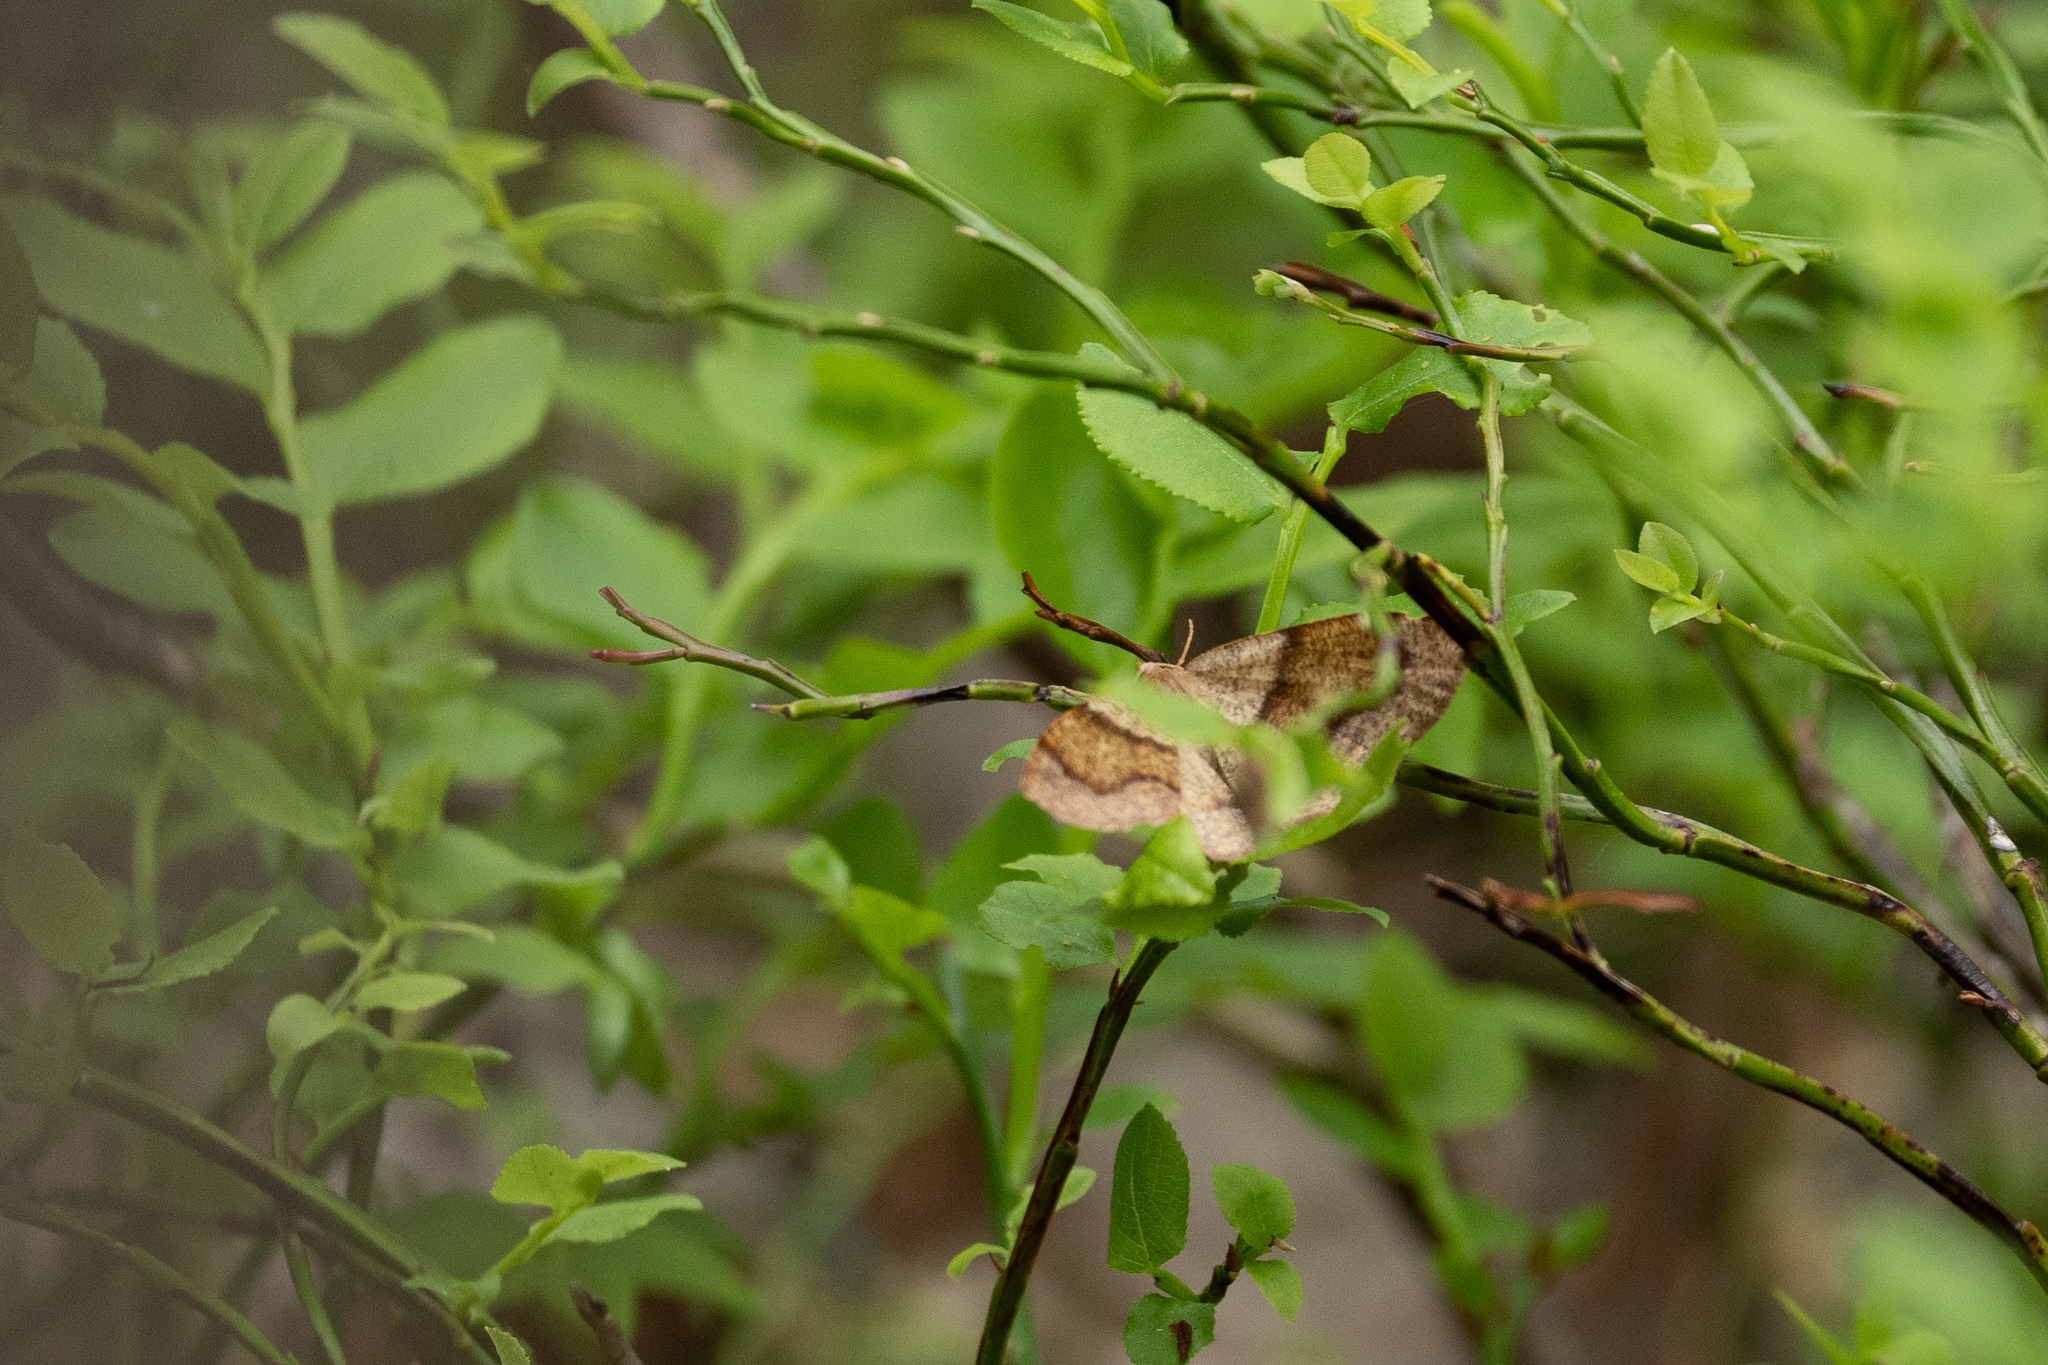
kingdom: Animalia
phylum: Arthropoda
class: Insecta
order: Lepidoptera
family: Geometridae
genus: Plagodis
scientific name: Plagodis pulveraria
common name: Barred umber
